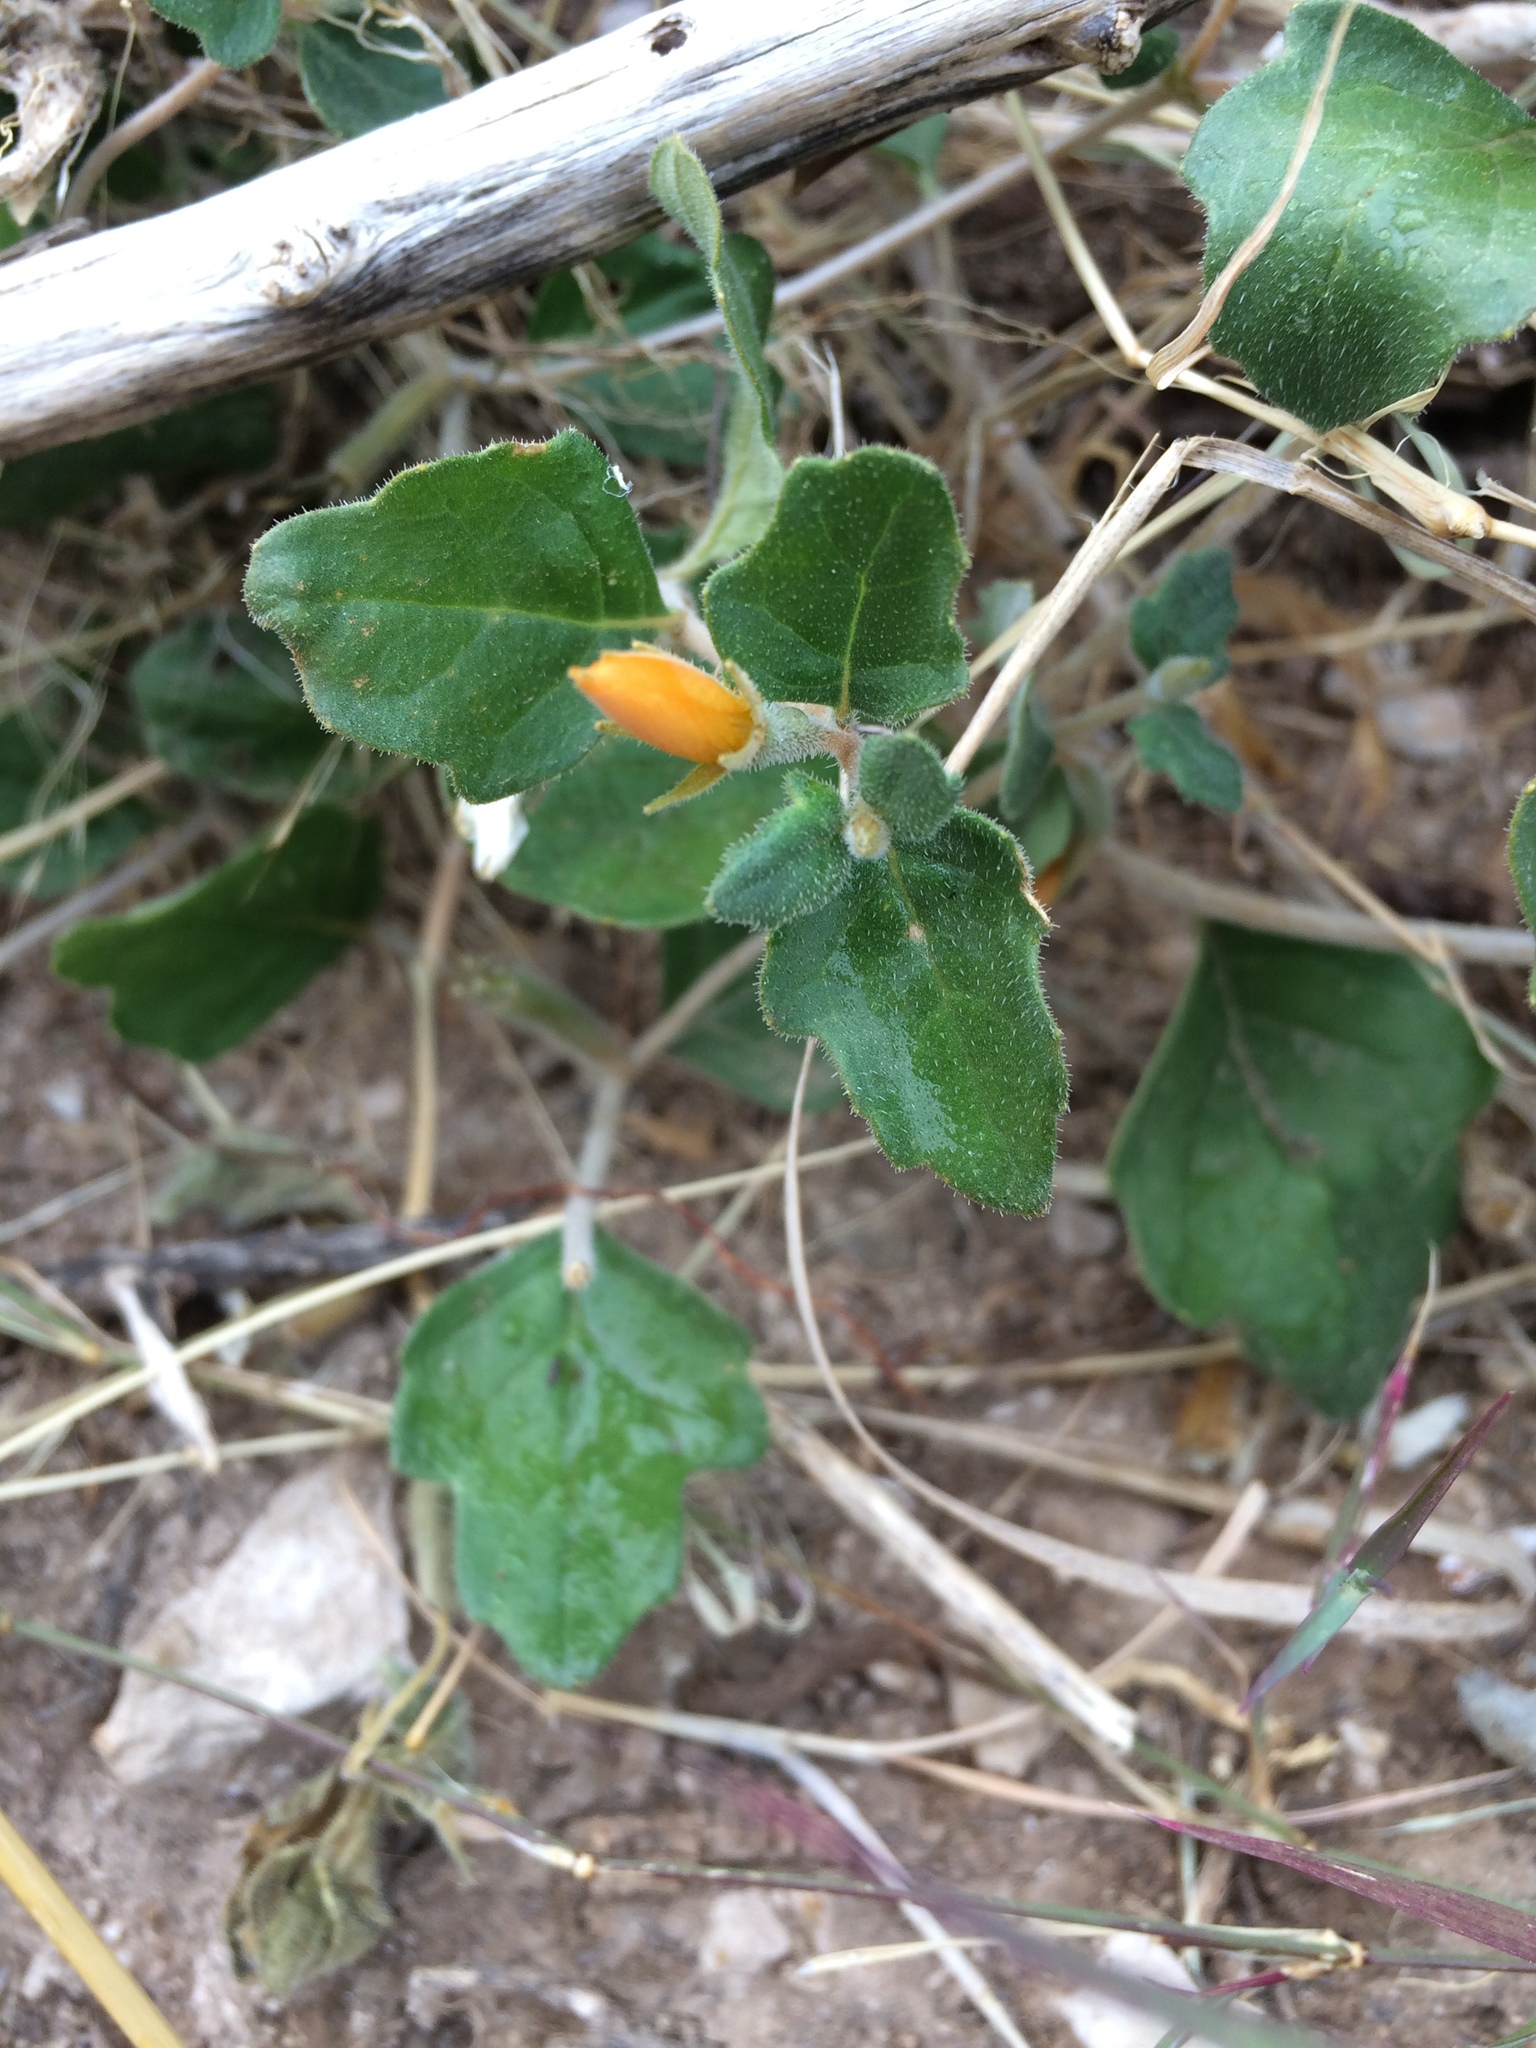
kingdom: Plantae
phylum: Tracheophyta
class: Magnoliopsida
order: Cornales
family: Loasaceae
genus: Mentzelia
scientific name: Mentzelia oligosperma
